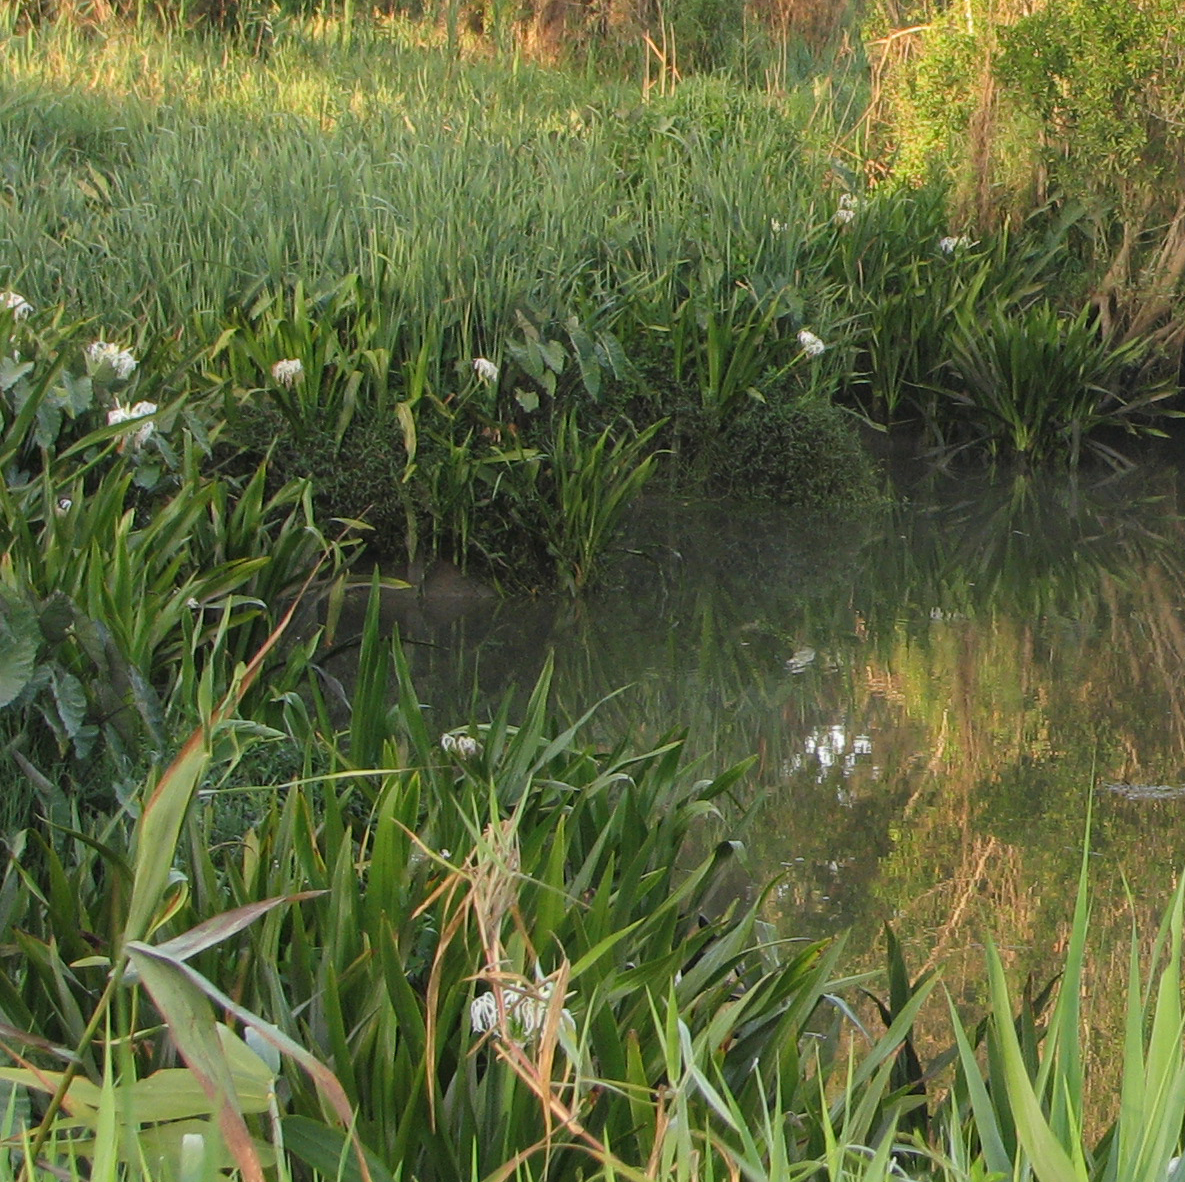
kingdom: Plantae
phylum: Tracheophyta
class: Liliopsida
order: Asparagales
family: Amaryllidaceae
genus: Crinum
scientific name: Crinum pedunculatum
